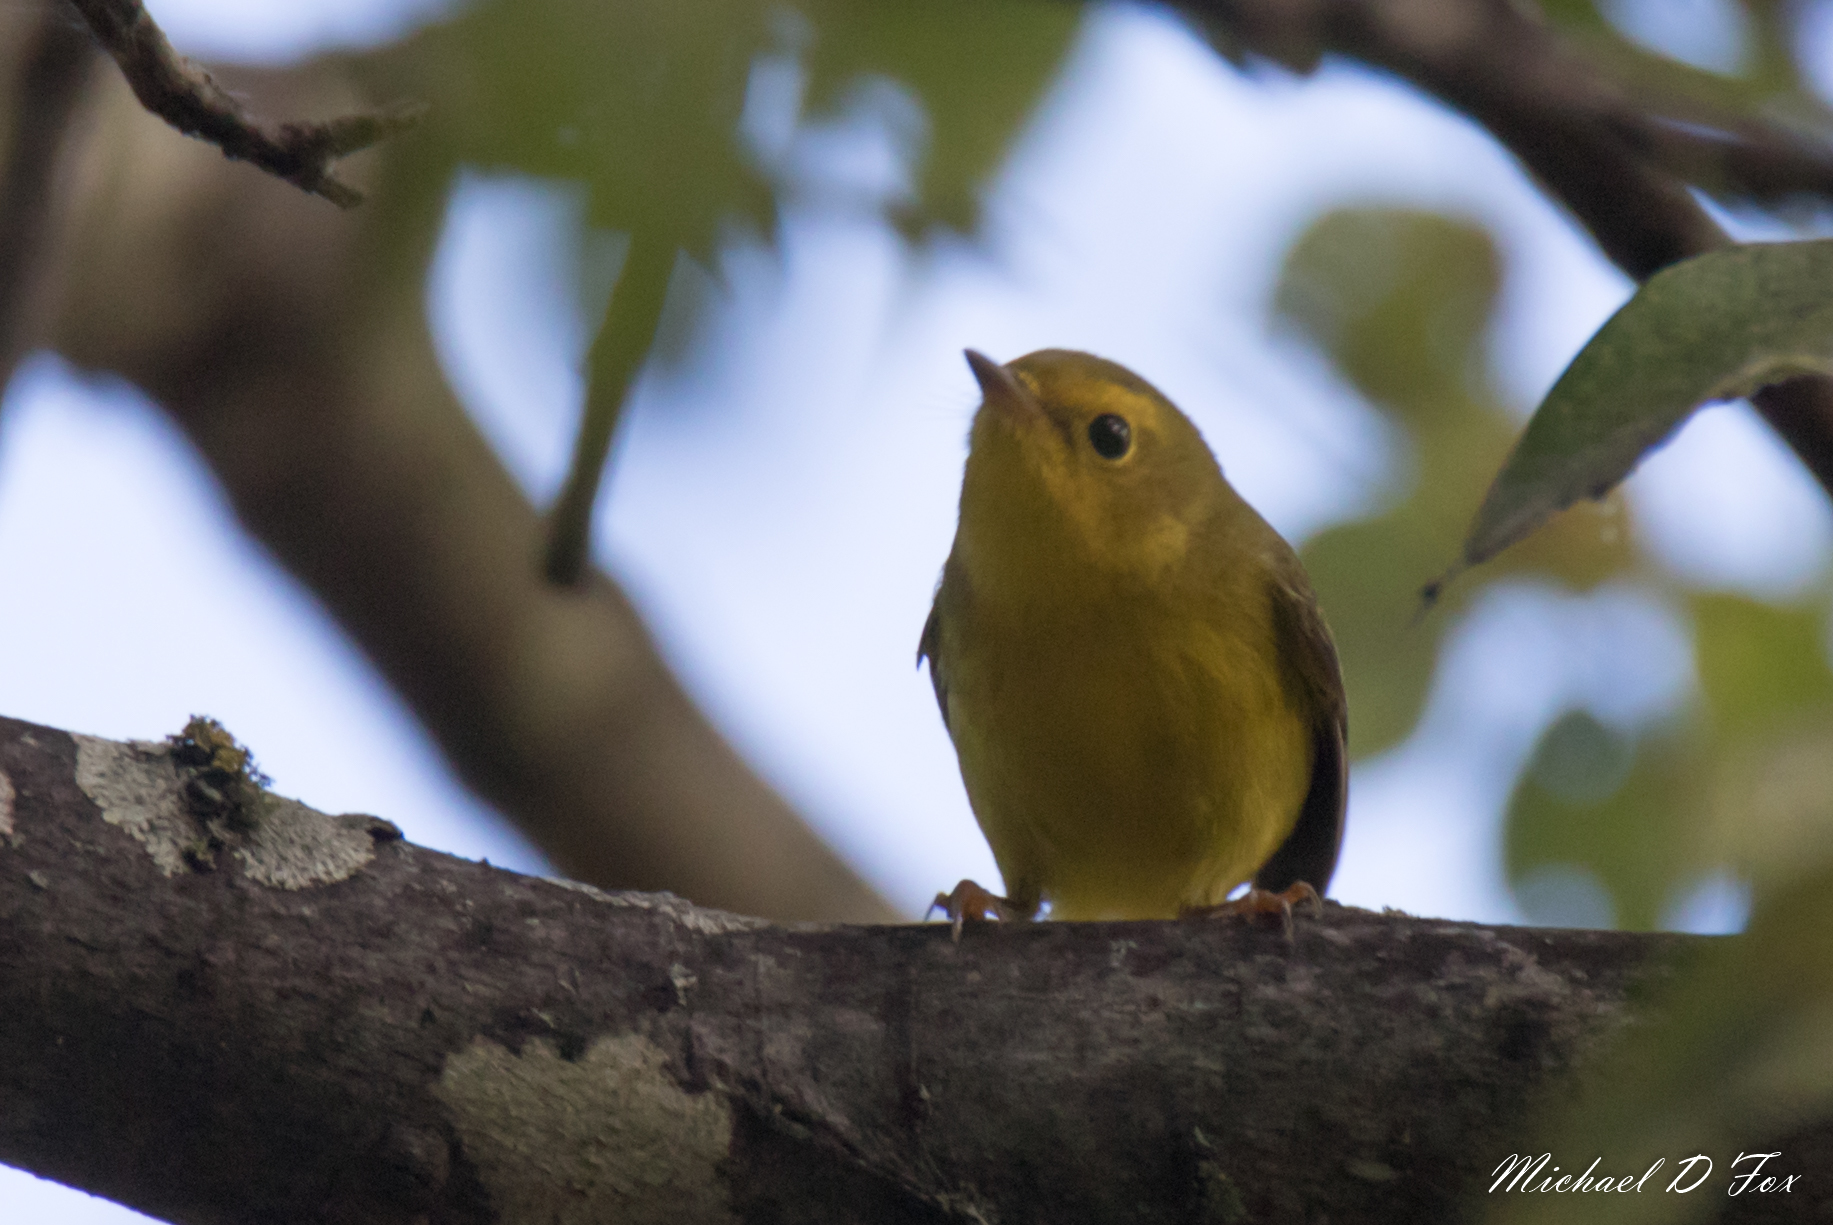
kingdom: Animalia
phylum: Chordata
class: Aves
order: Passeriformes
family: Parulidae
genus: Cardellina
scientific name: Cardellina pusilla
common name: Wilson's warbler
